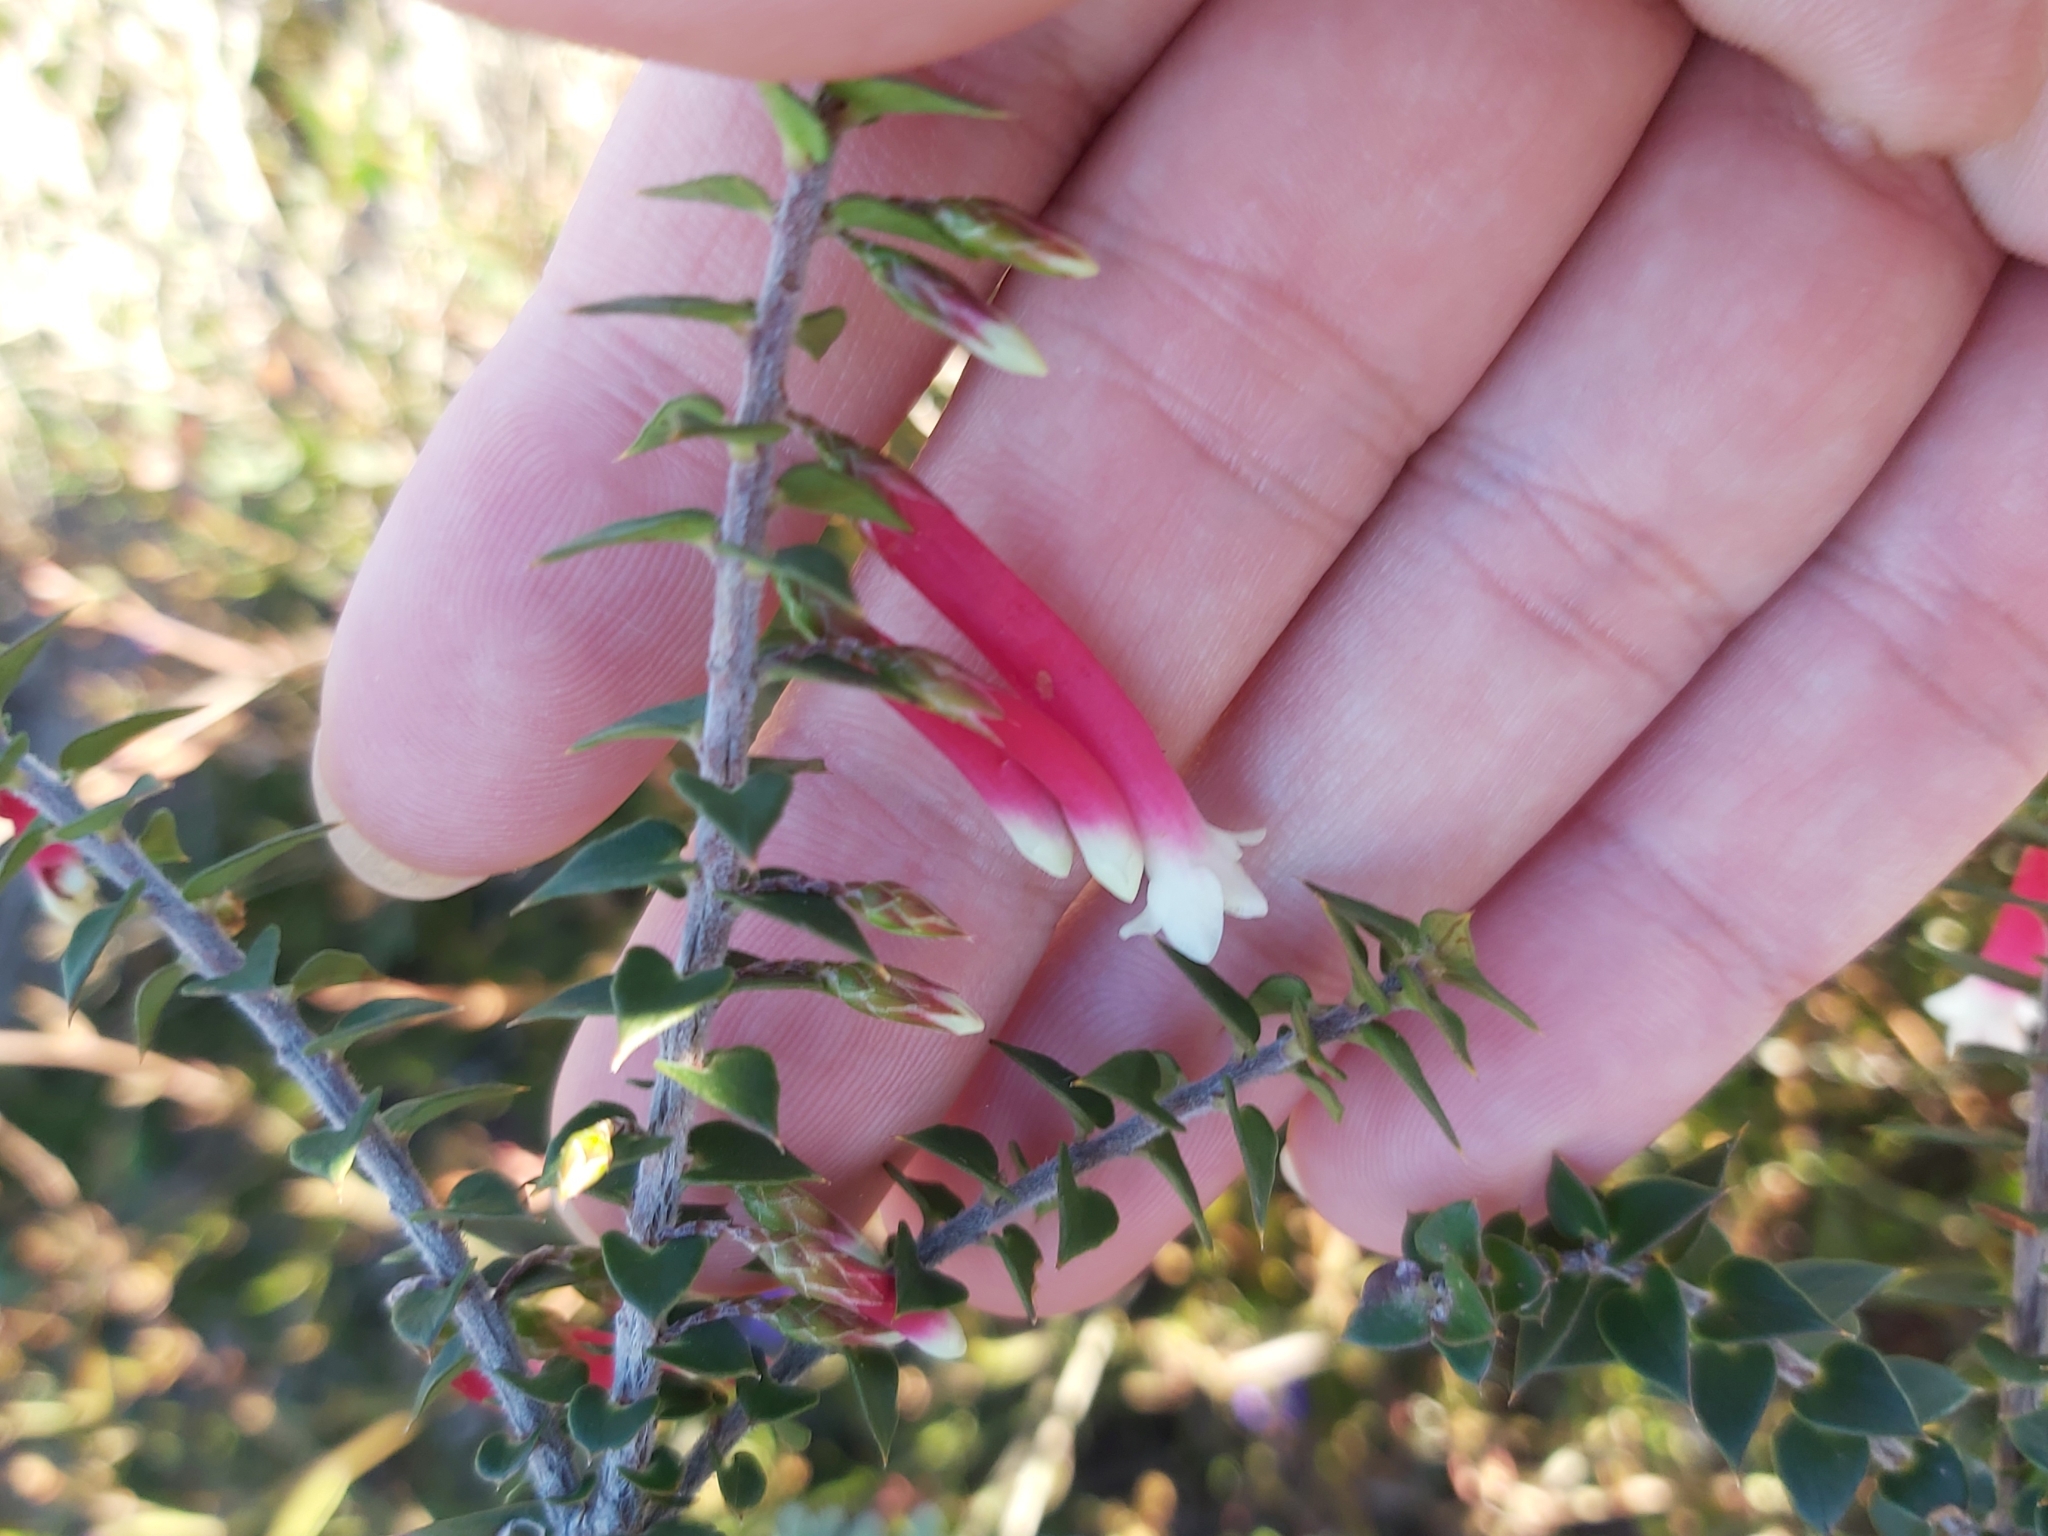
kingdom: Plantae
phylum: Tracheophyta
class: Magnoliopsida
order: Ericales
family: Ericaceae
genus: Epacris
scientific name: Epacris longiflora
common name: Fuchsia-heath
